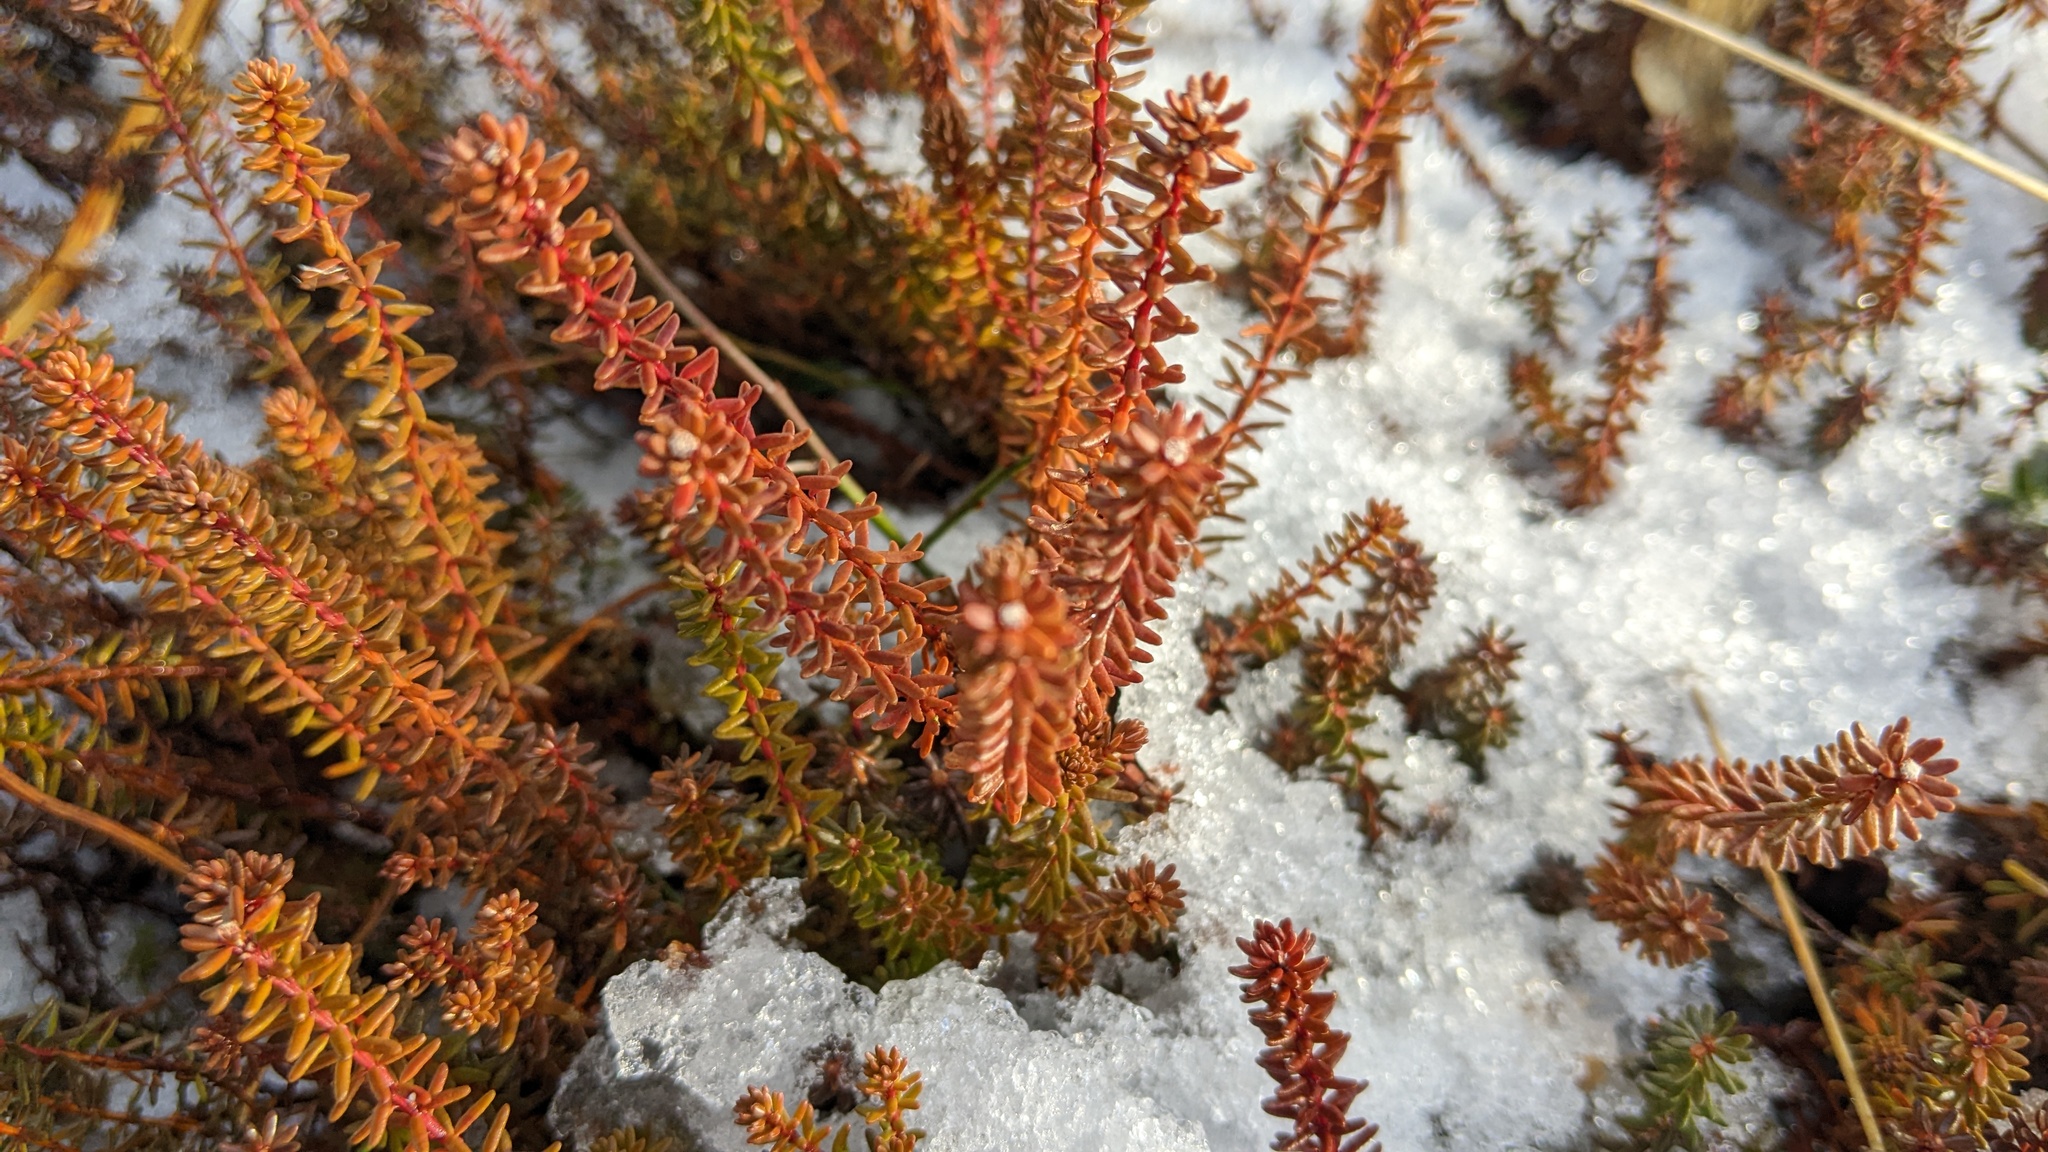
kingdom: Plantae
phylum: Tracheophyta
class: Magnoliopsida
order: Ericales
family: Ericaceae
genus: Empetrum
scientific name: Empetrum nigrum
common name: Black crowberry
